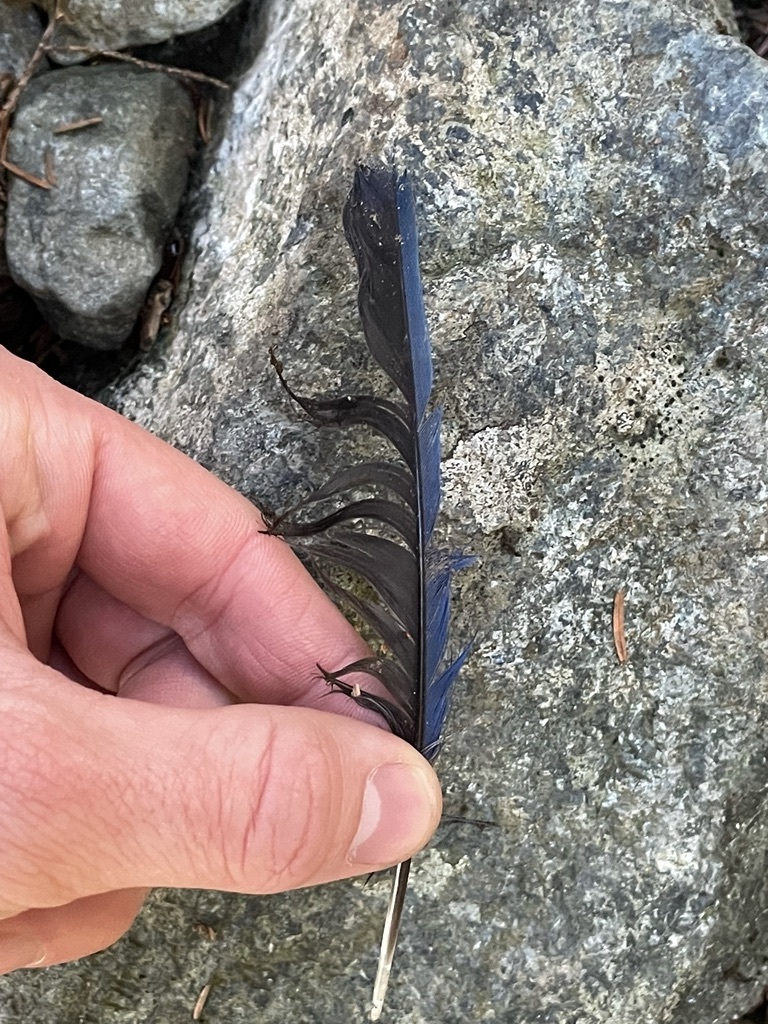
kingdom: Animalia
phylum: Chordata
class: Aves
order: Passeriformes
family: Corvidae
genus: Cyanocitta
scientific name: Cyanocitta stelleri
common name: Steller's jay
